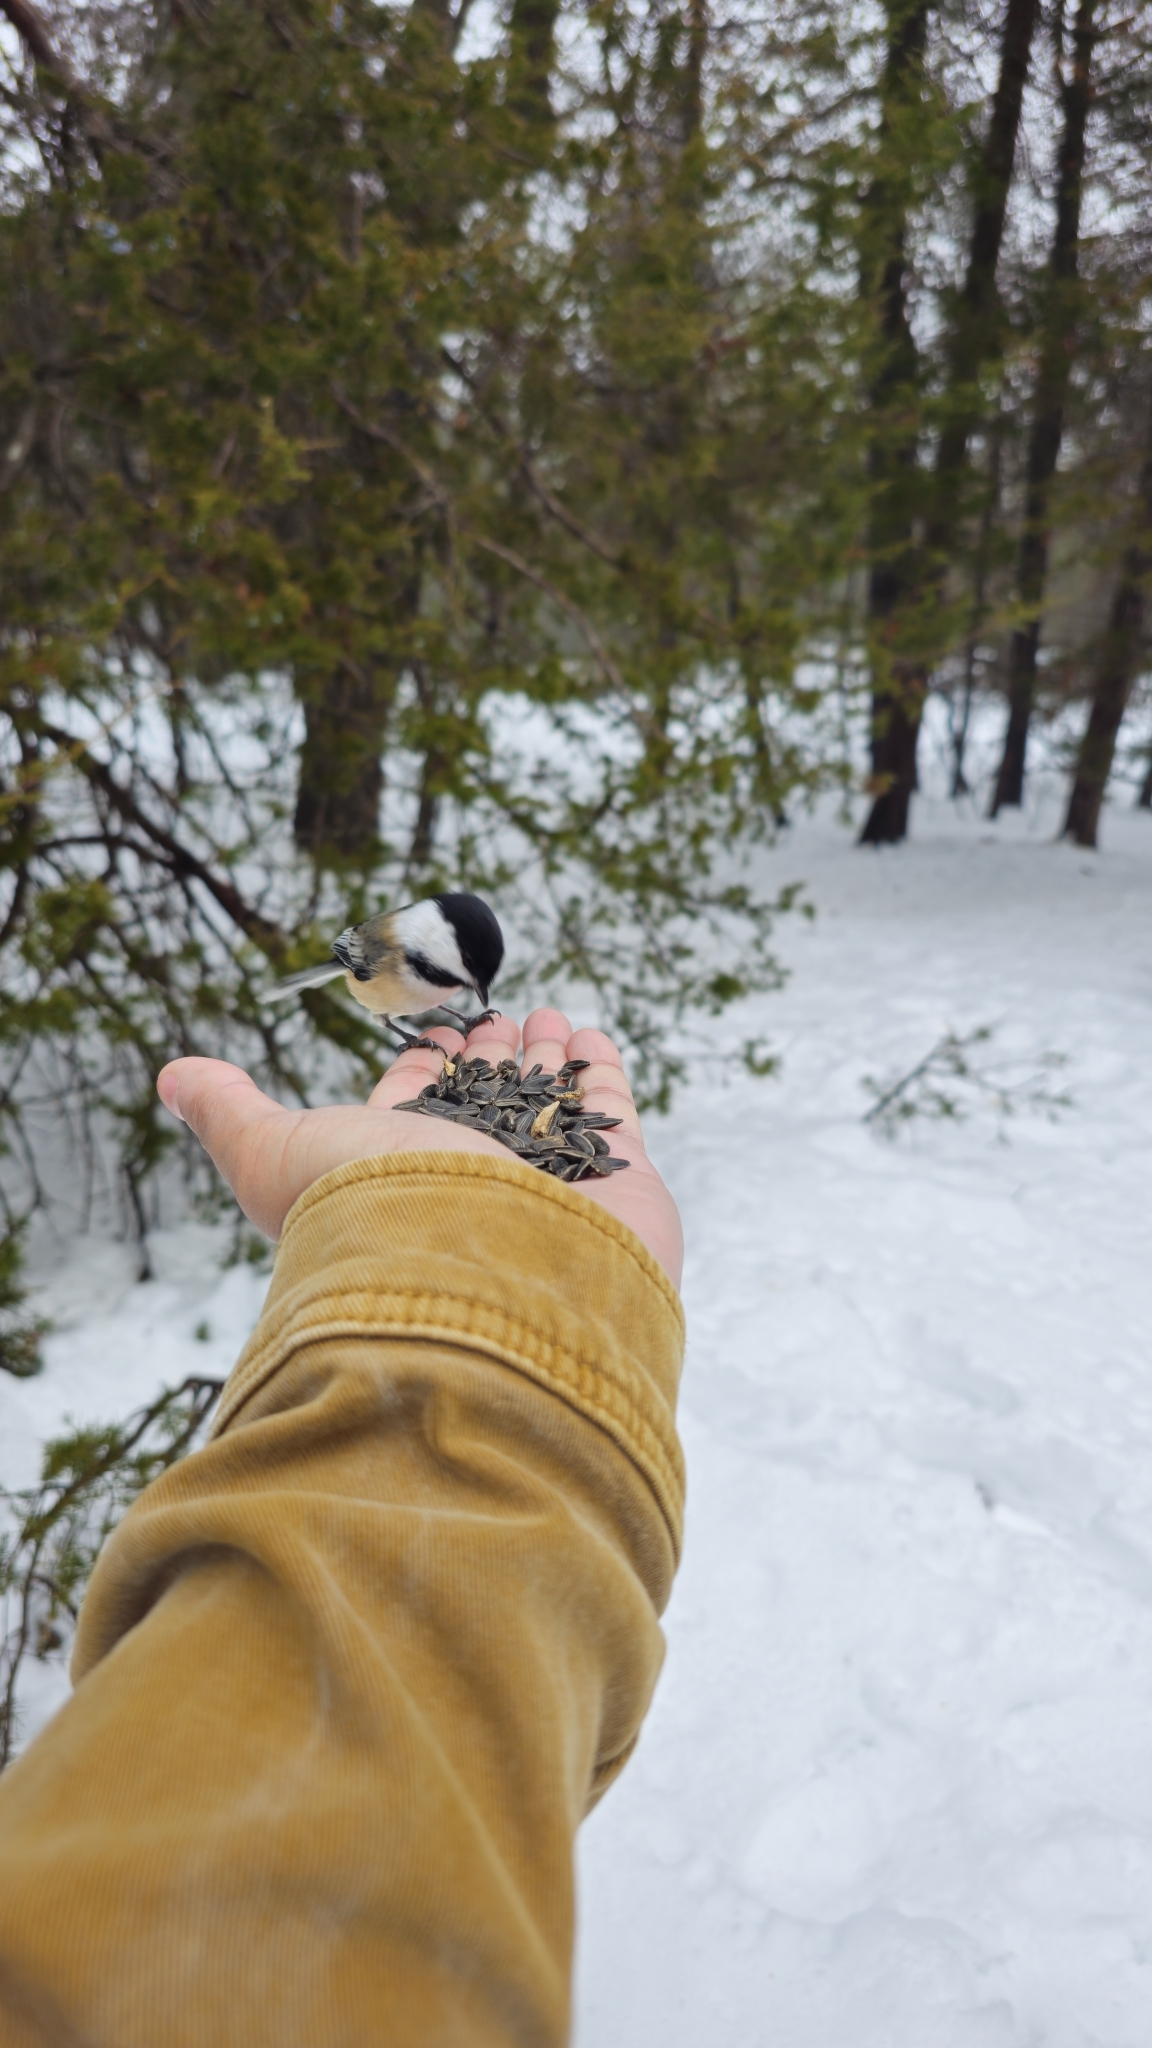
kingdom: Animalia
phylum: Chordata
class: Aves
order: Passeriformes
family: Paridae
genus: Poecile
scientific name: Poecile atricapillus
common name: Black-capped chickadee
